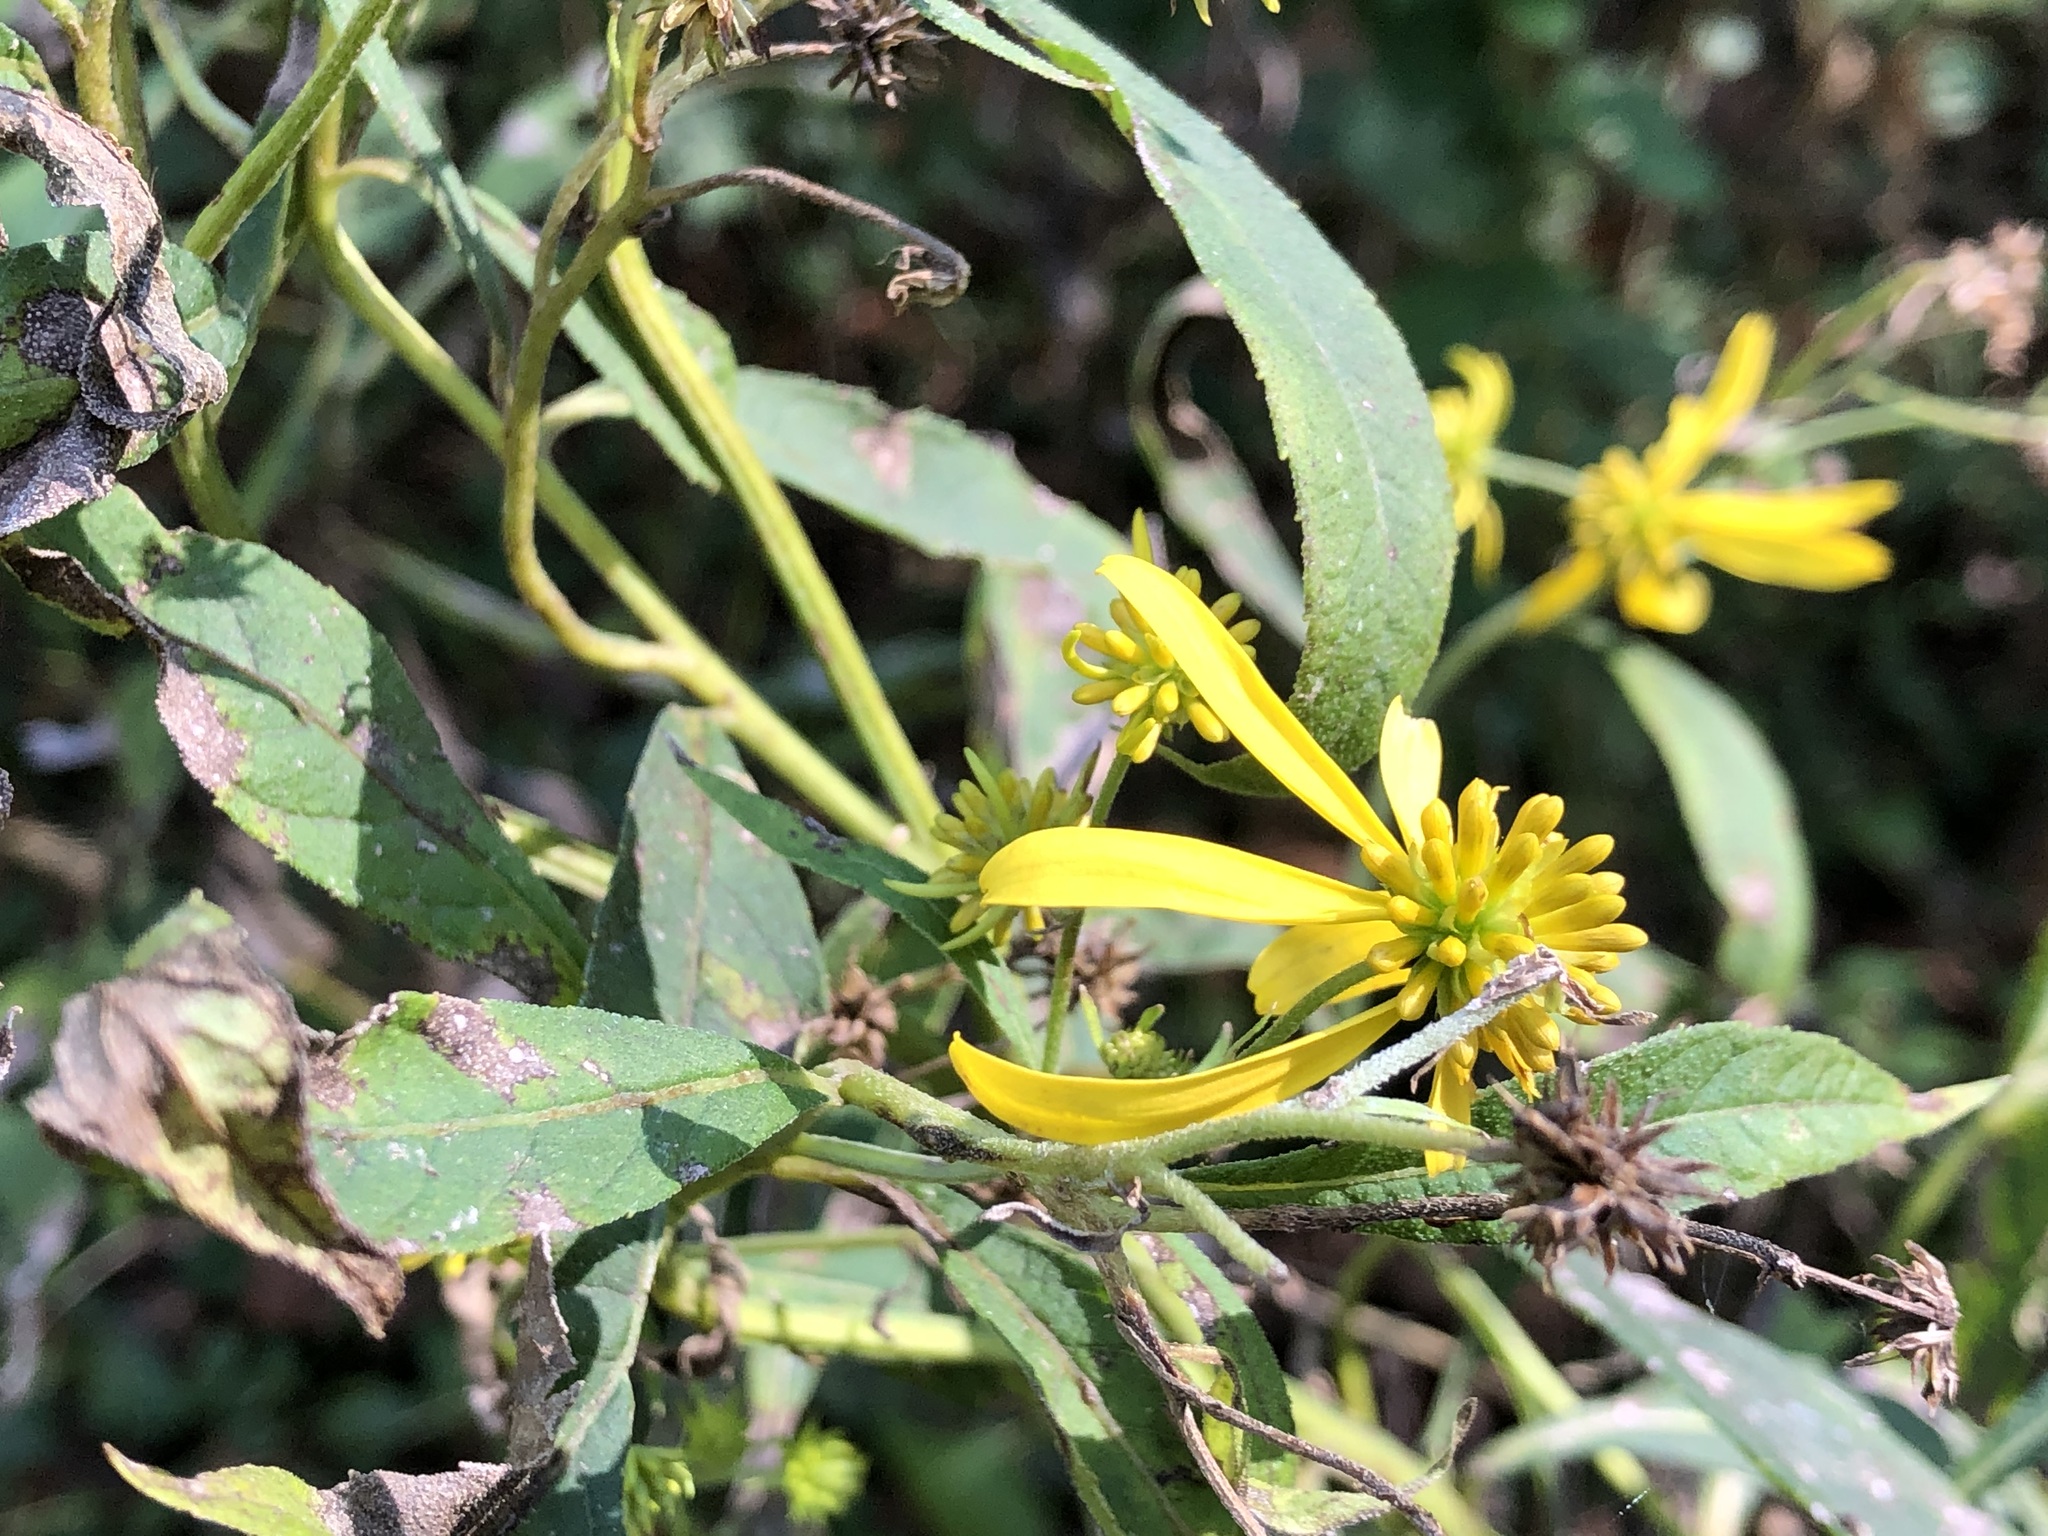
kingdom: Plantae
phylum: Tracheophyta
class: Magnoliopsida
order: Asterales
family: Asteraceae
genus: Verbesina
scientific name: Verbesina alternifolia
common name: Wingstem
